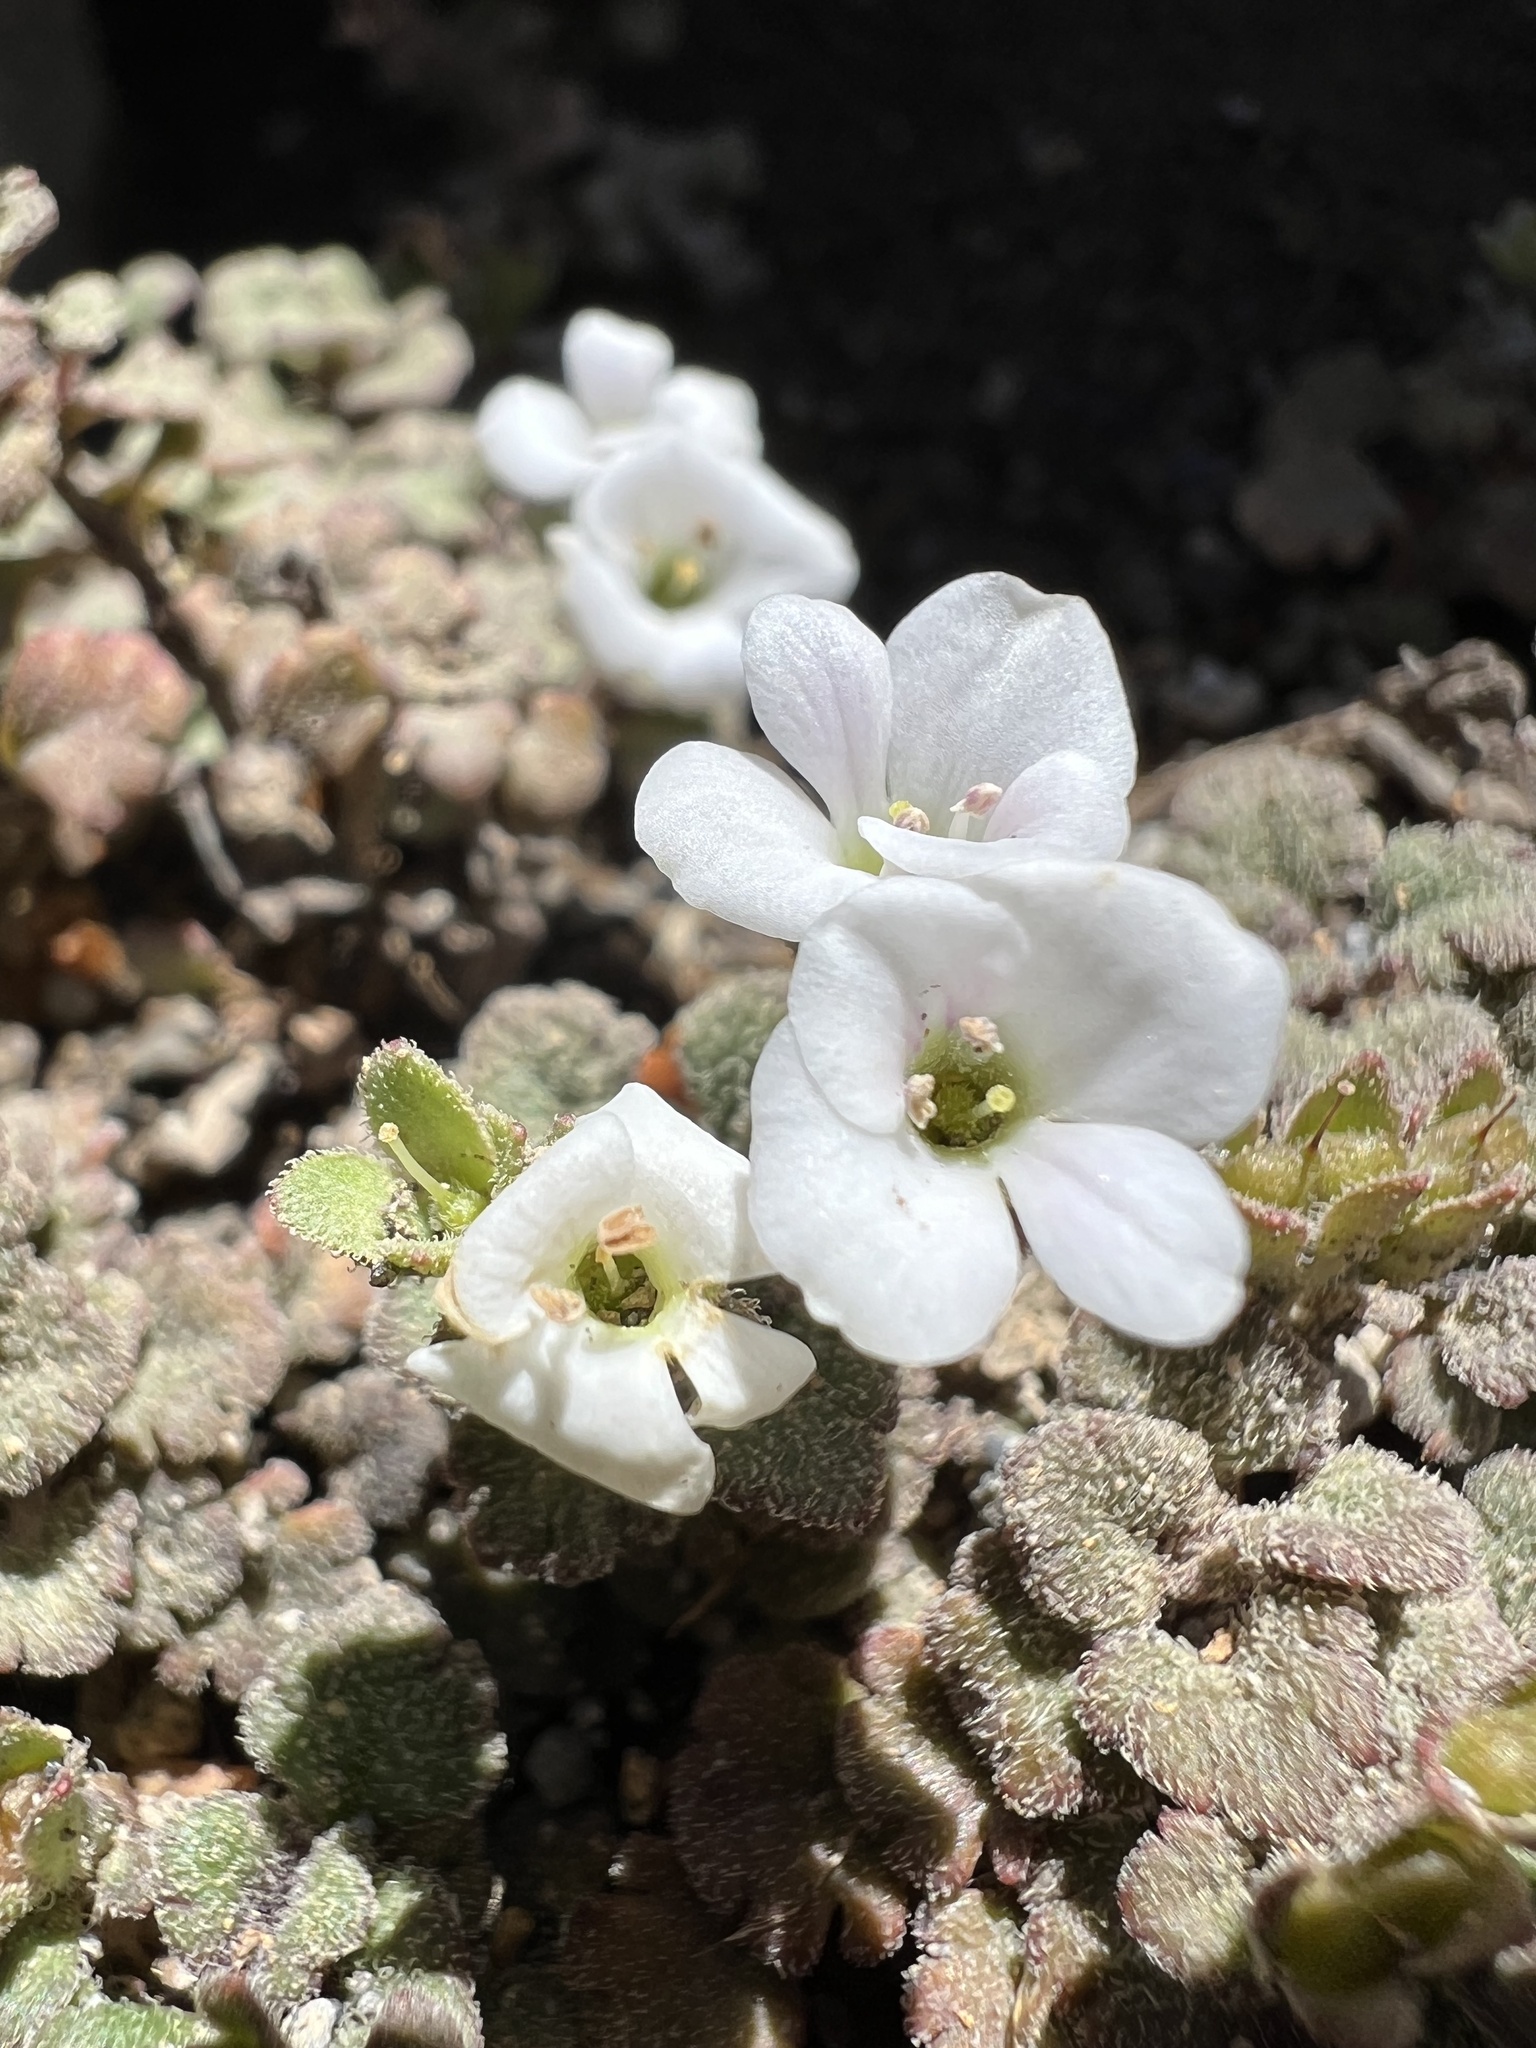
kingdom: Plantae
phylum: Tracheophyta
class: Magnoliopsida
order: Lamiales
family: Plantaginaceae
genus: Veronica
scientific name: Veronica spathulata
